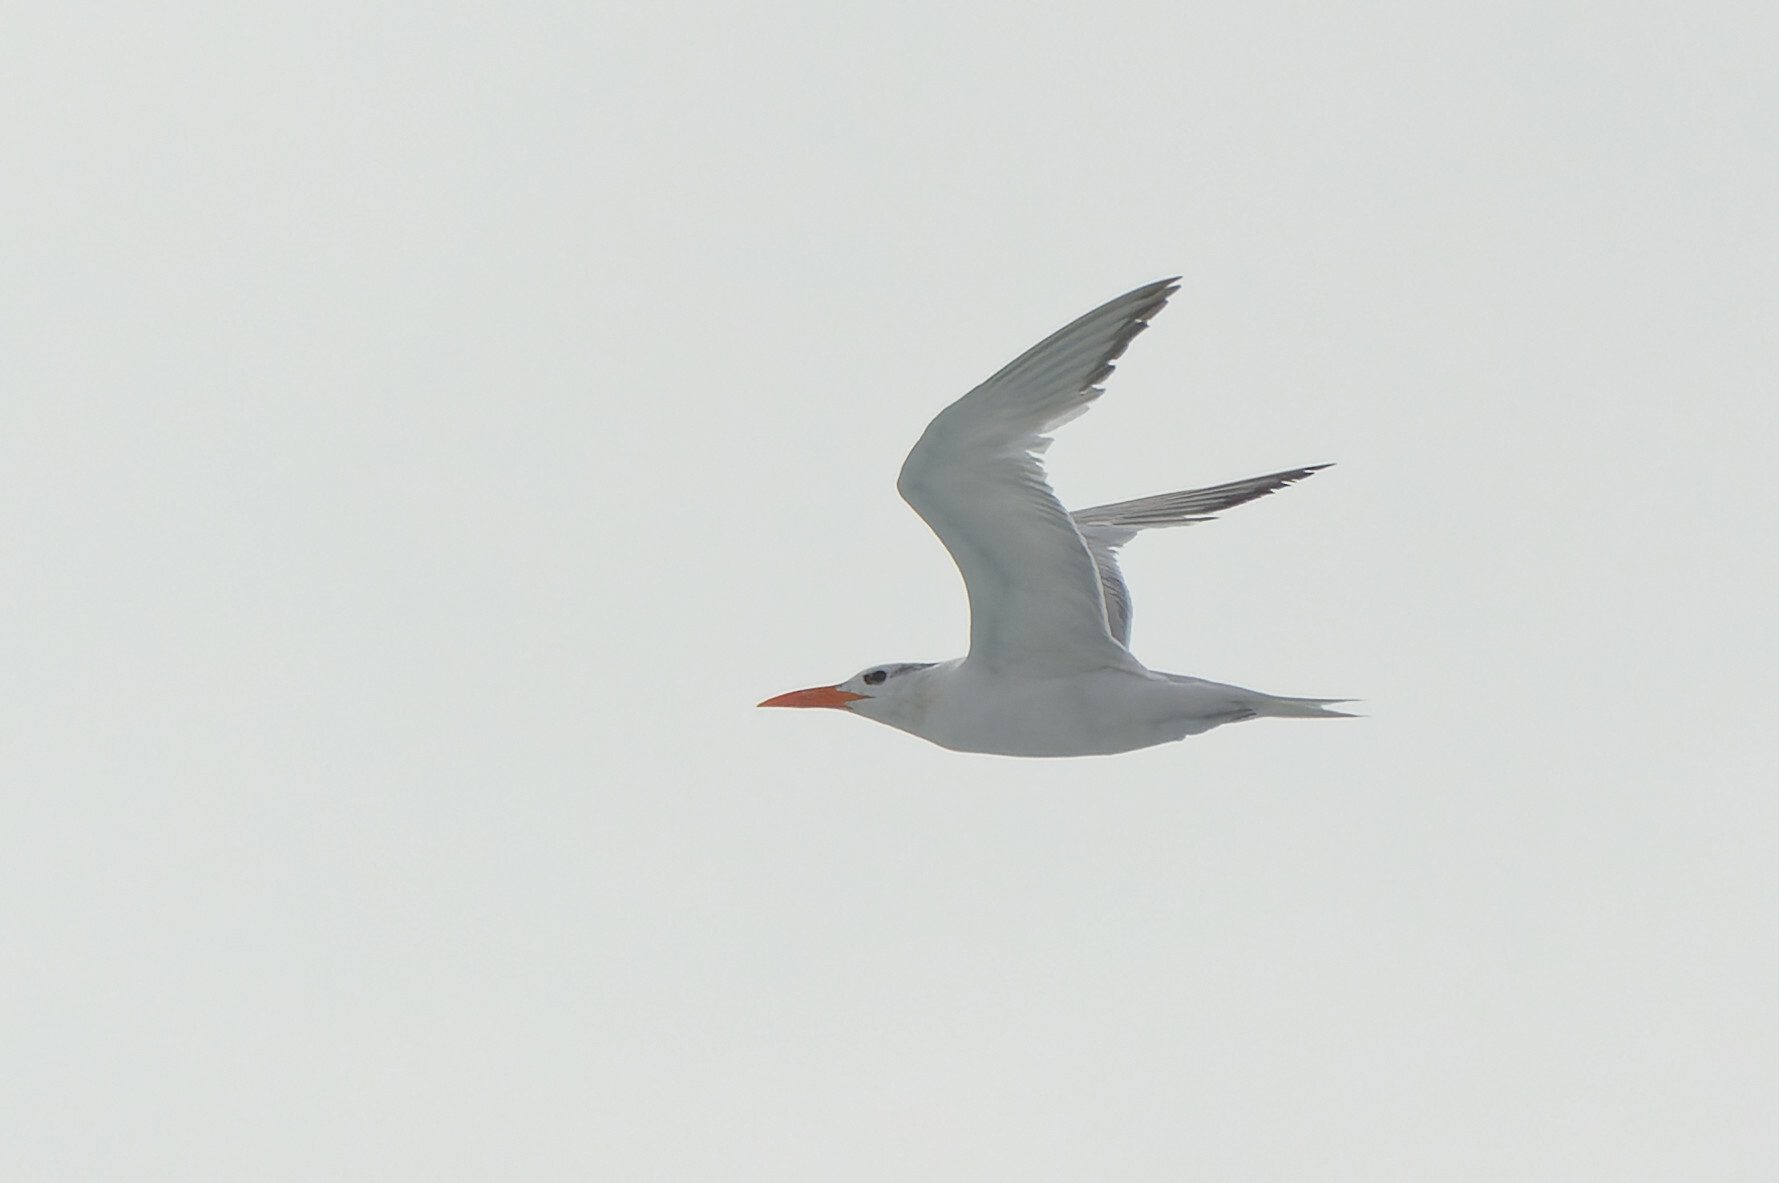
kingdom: Animalia
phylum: Chordata
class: Aves
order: Charadriiformes
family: Laridae
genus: Thalasseus
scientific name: Thalasseus maximus
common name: Royal tern
